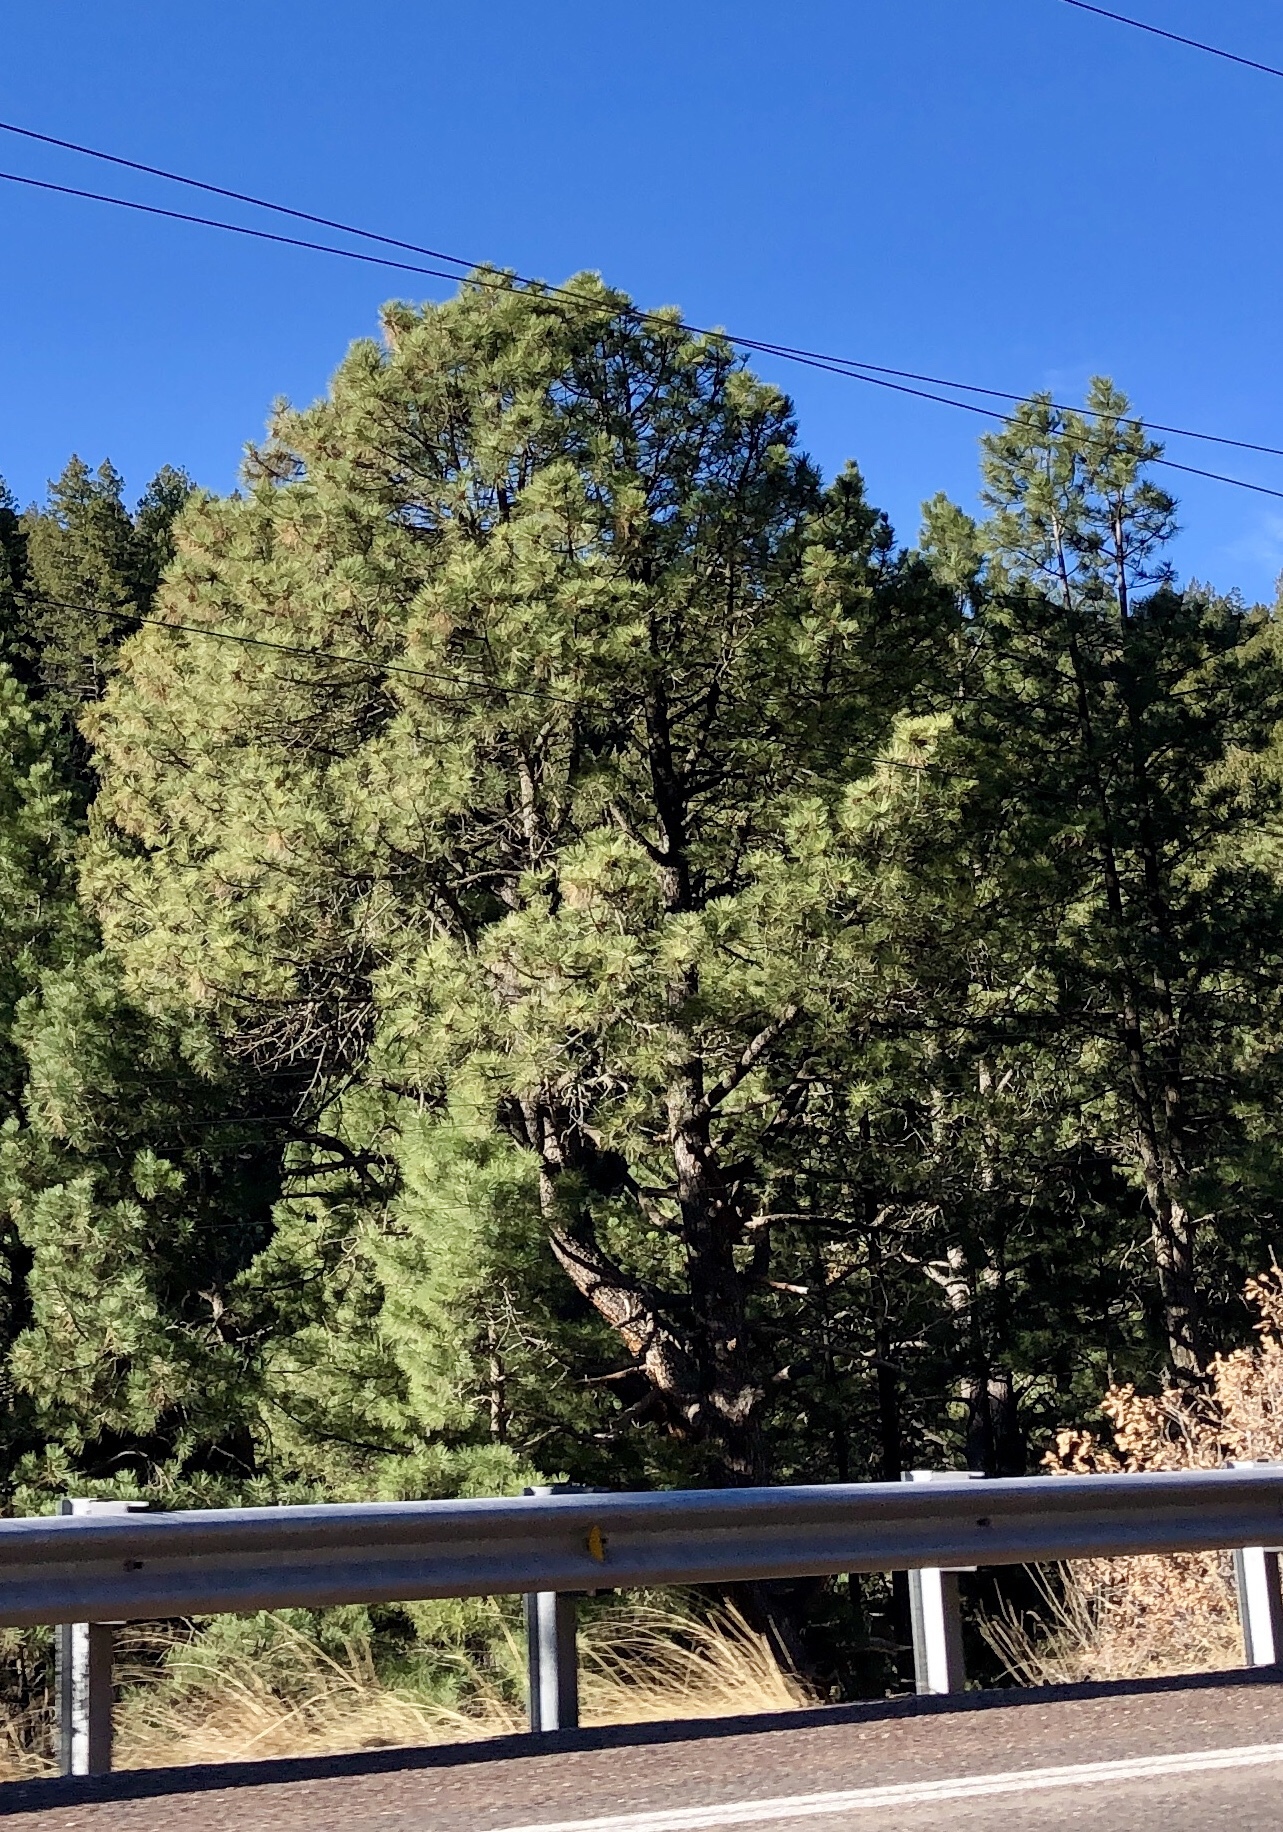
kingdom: Plantae
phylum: Tracheophyta
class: Pinopsida
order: Pinales
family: Pinaceae
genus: Pinus
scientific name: Pinus ponderosa
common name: Western yellow-pine
